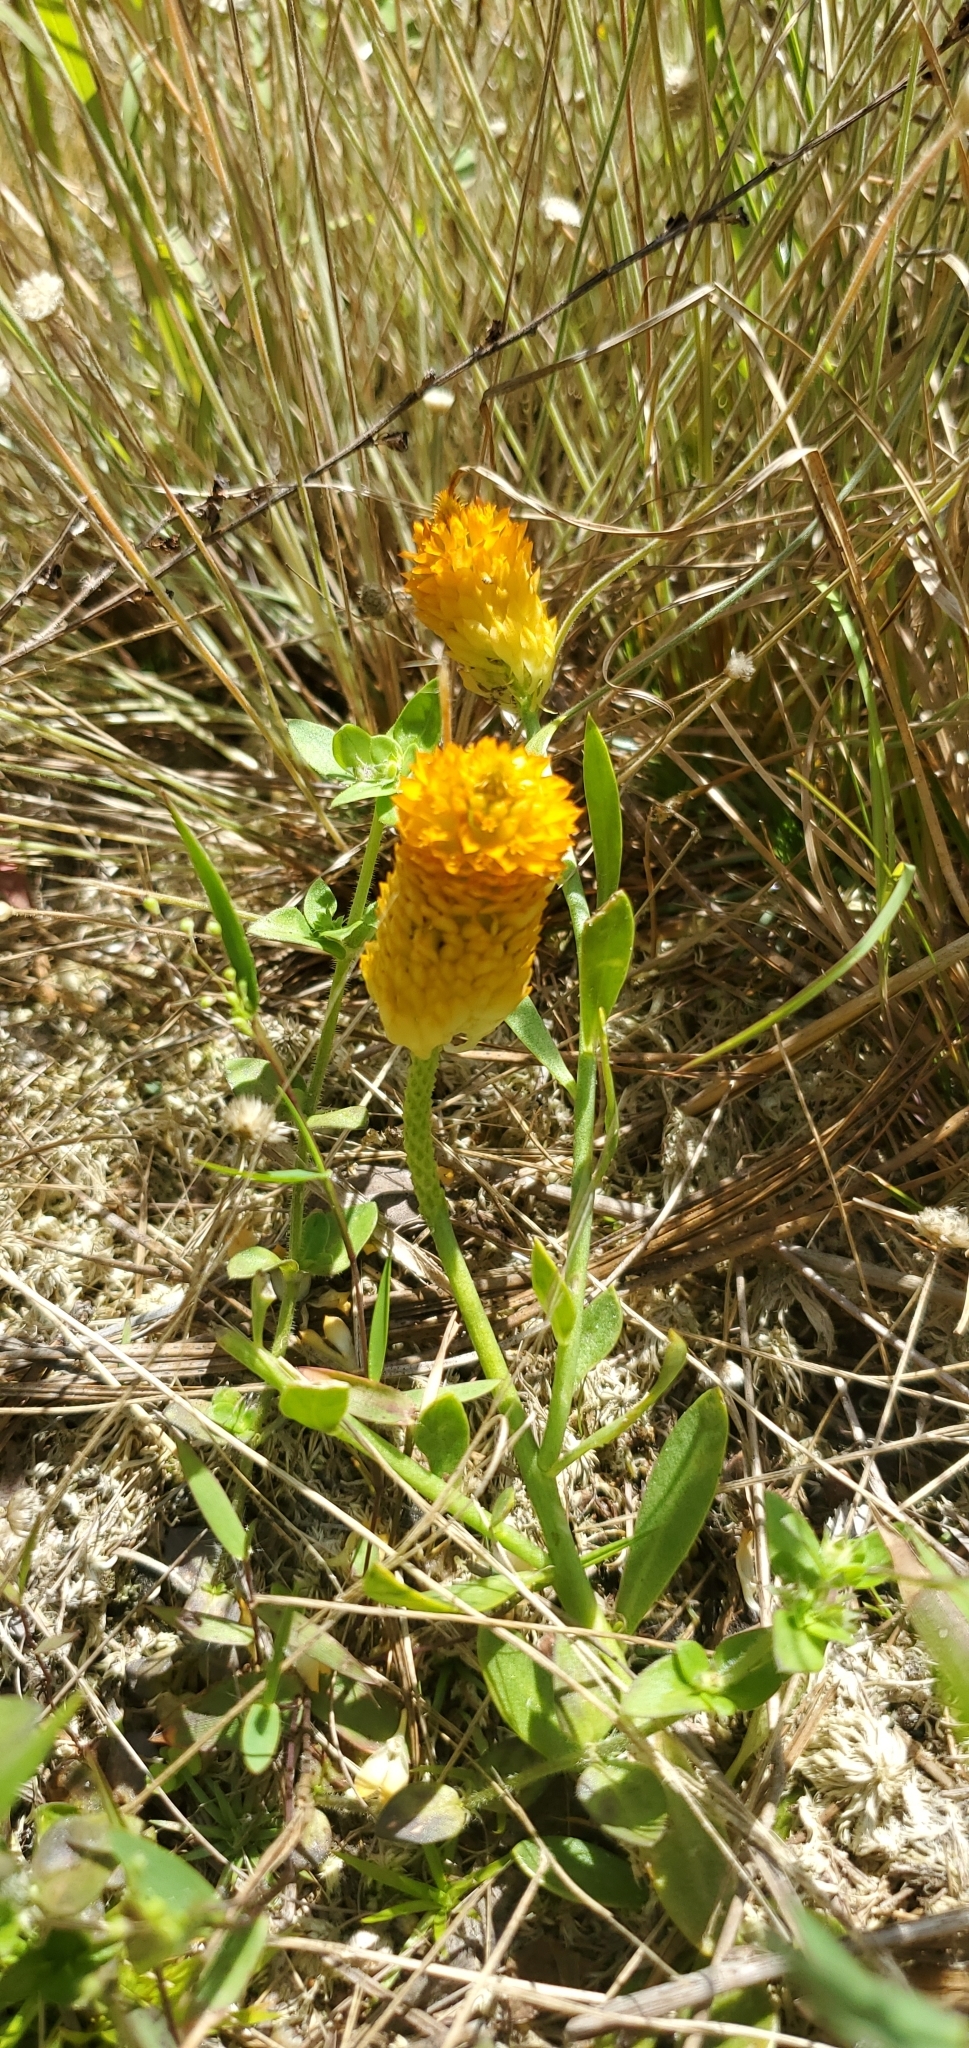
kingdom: Plantae
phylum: Tracheophyta
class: Magnoliopsida
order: Fabales
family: Polygalaceae
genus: Polygala
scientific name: Polygala lutea
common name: Orange milkwort
